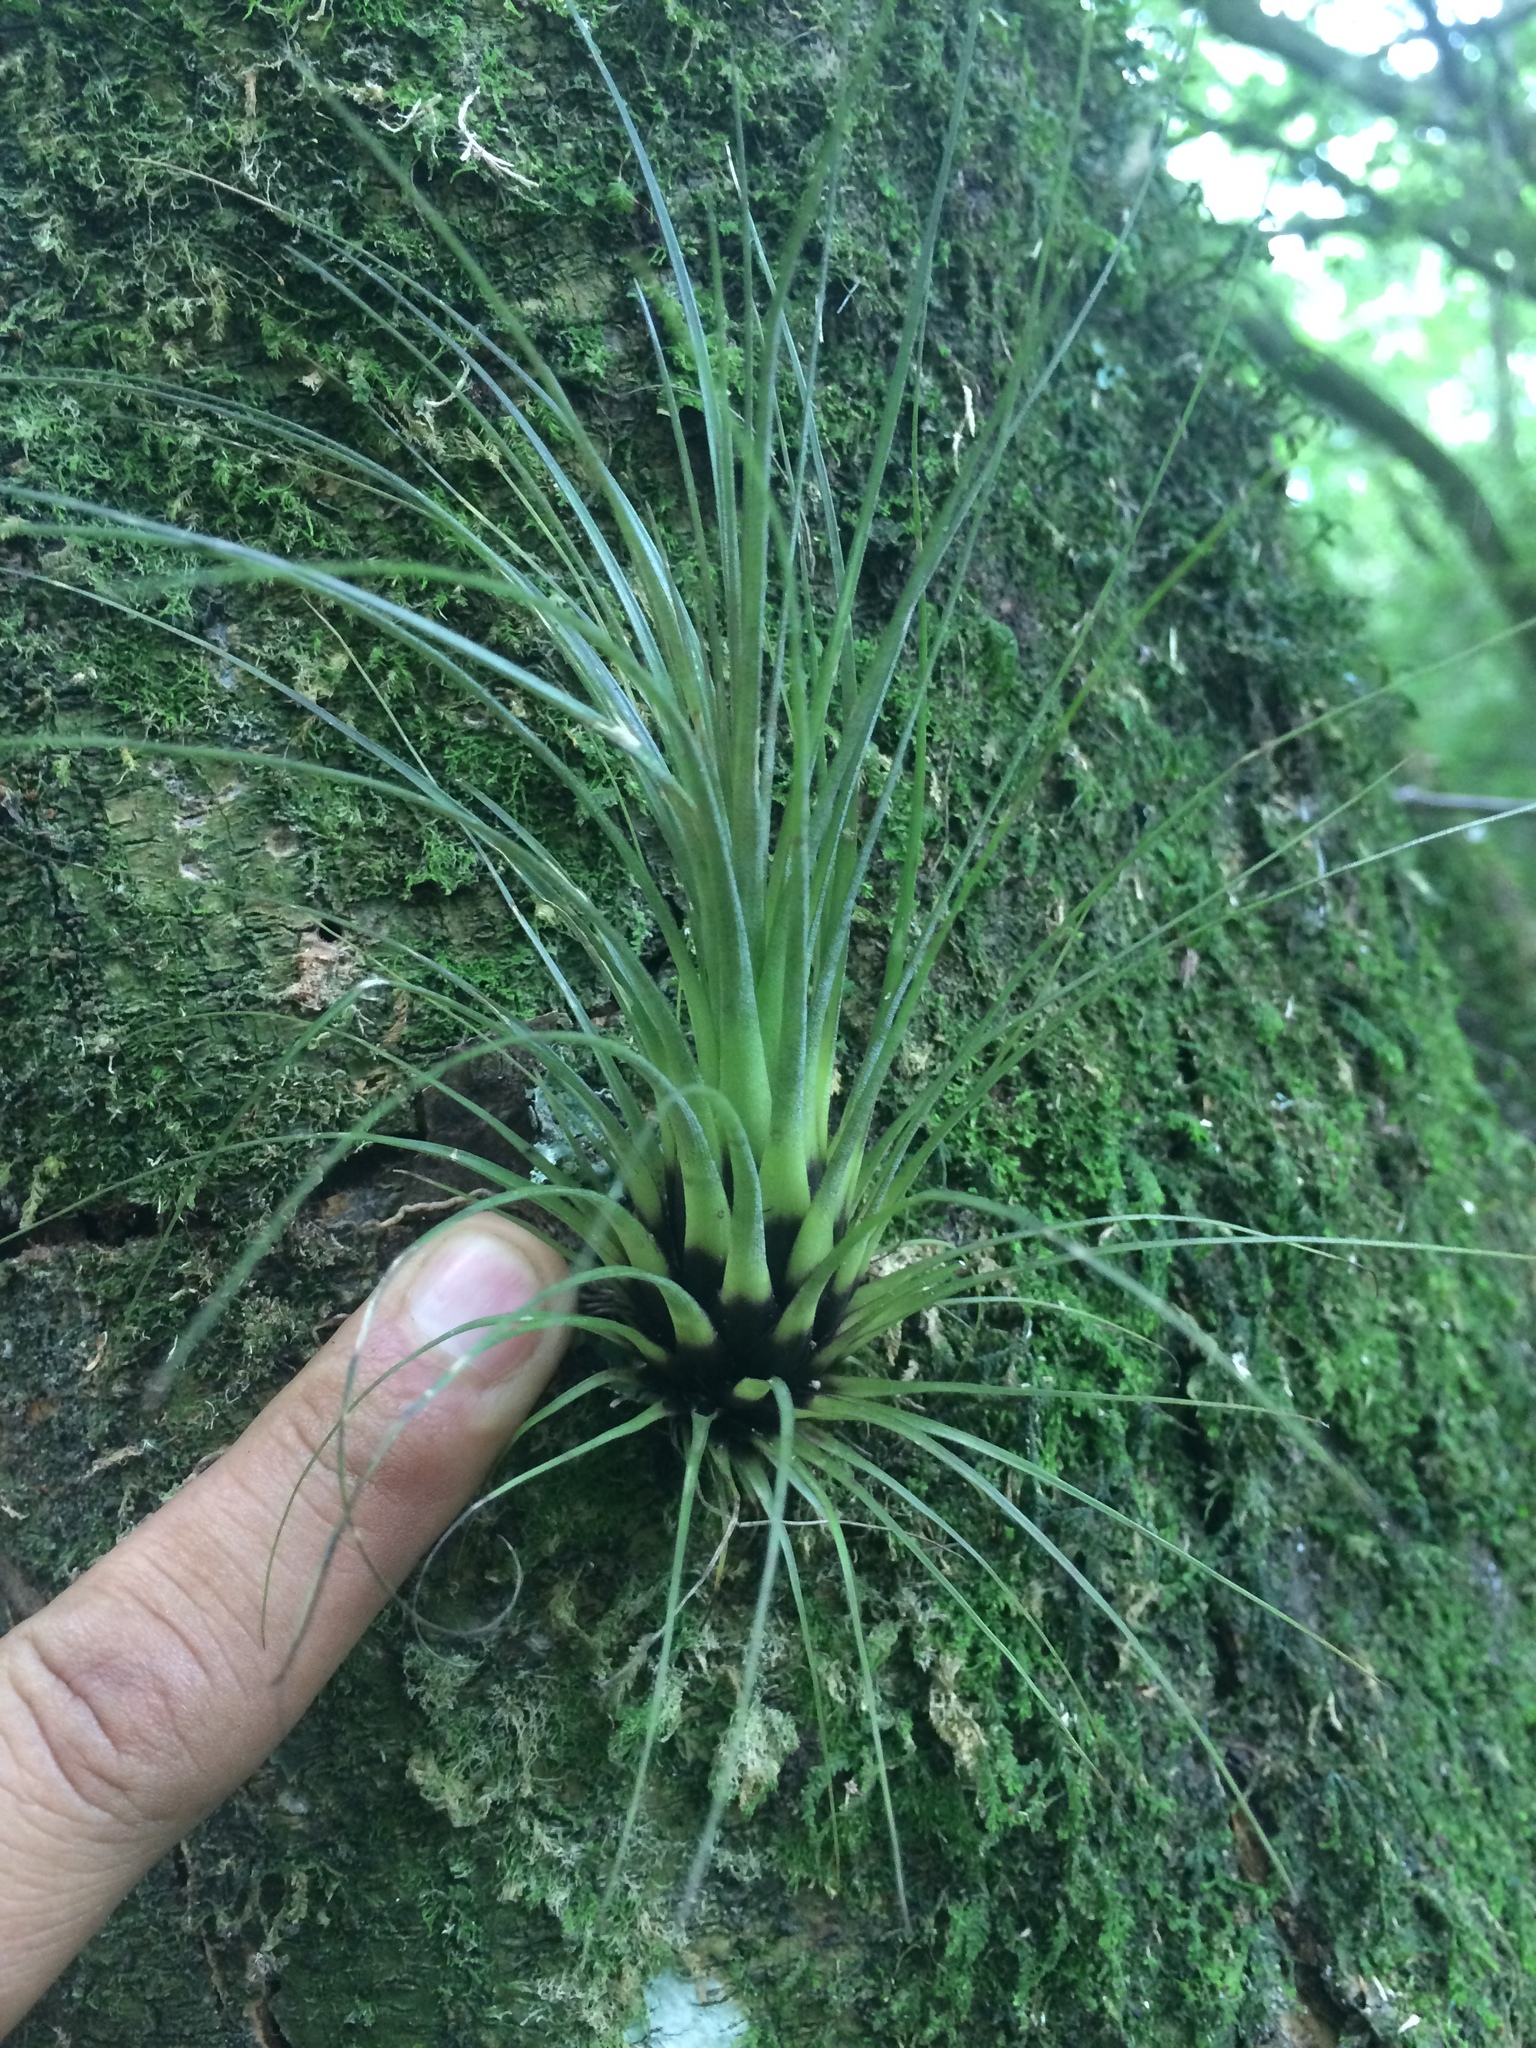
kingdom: Plantae
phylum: Tracheophyta
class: Liliopsida
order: Poales
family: Bromeliaceae
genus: Tillandsia
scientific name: Tillandsia punctulata
